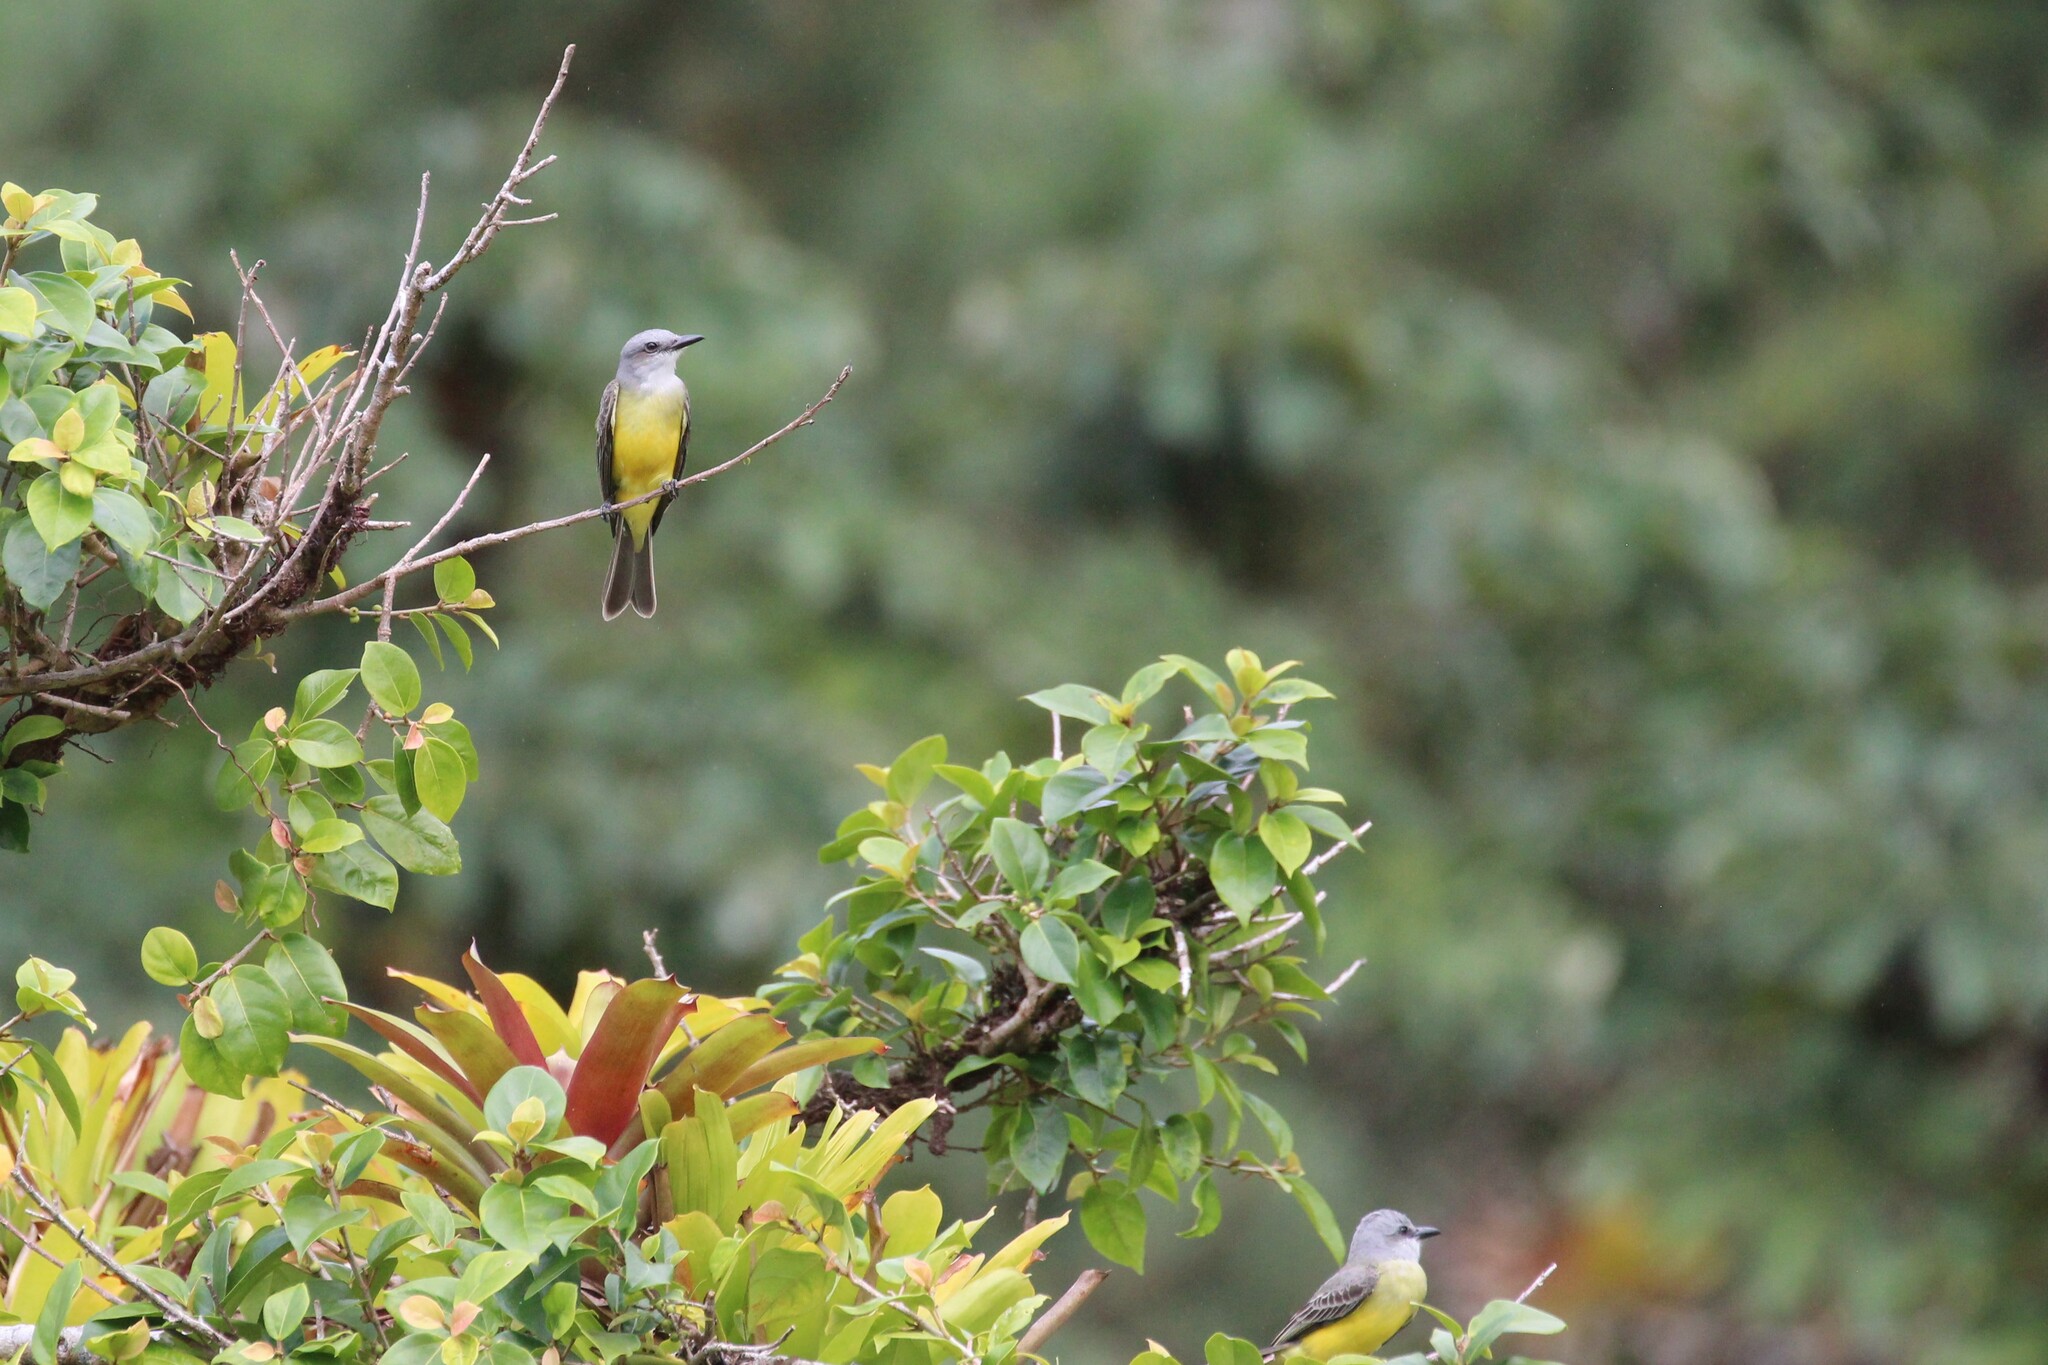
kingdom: Animalia
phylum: Chordata
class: Aves
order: Passeriformes
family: Tyrannidae
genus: Tyrannus
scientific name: Tyrannus melancholicus
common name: Tropical kingbird
